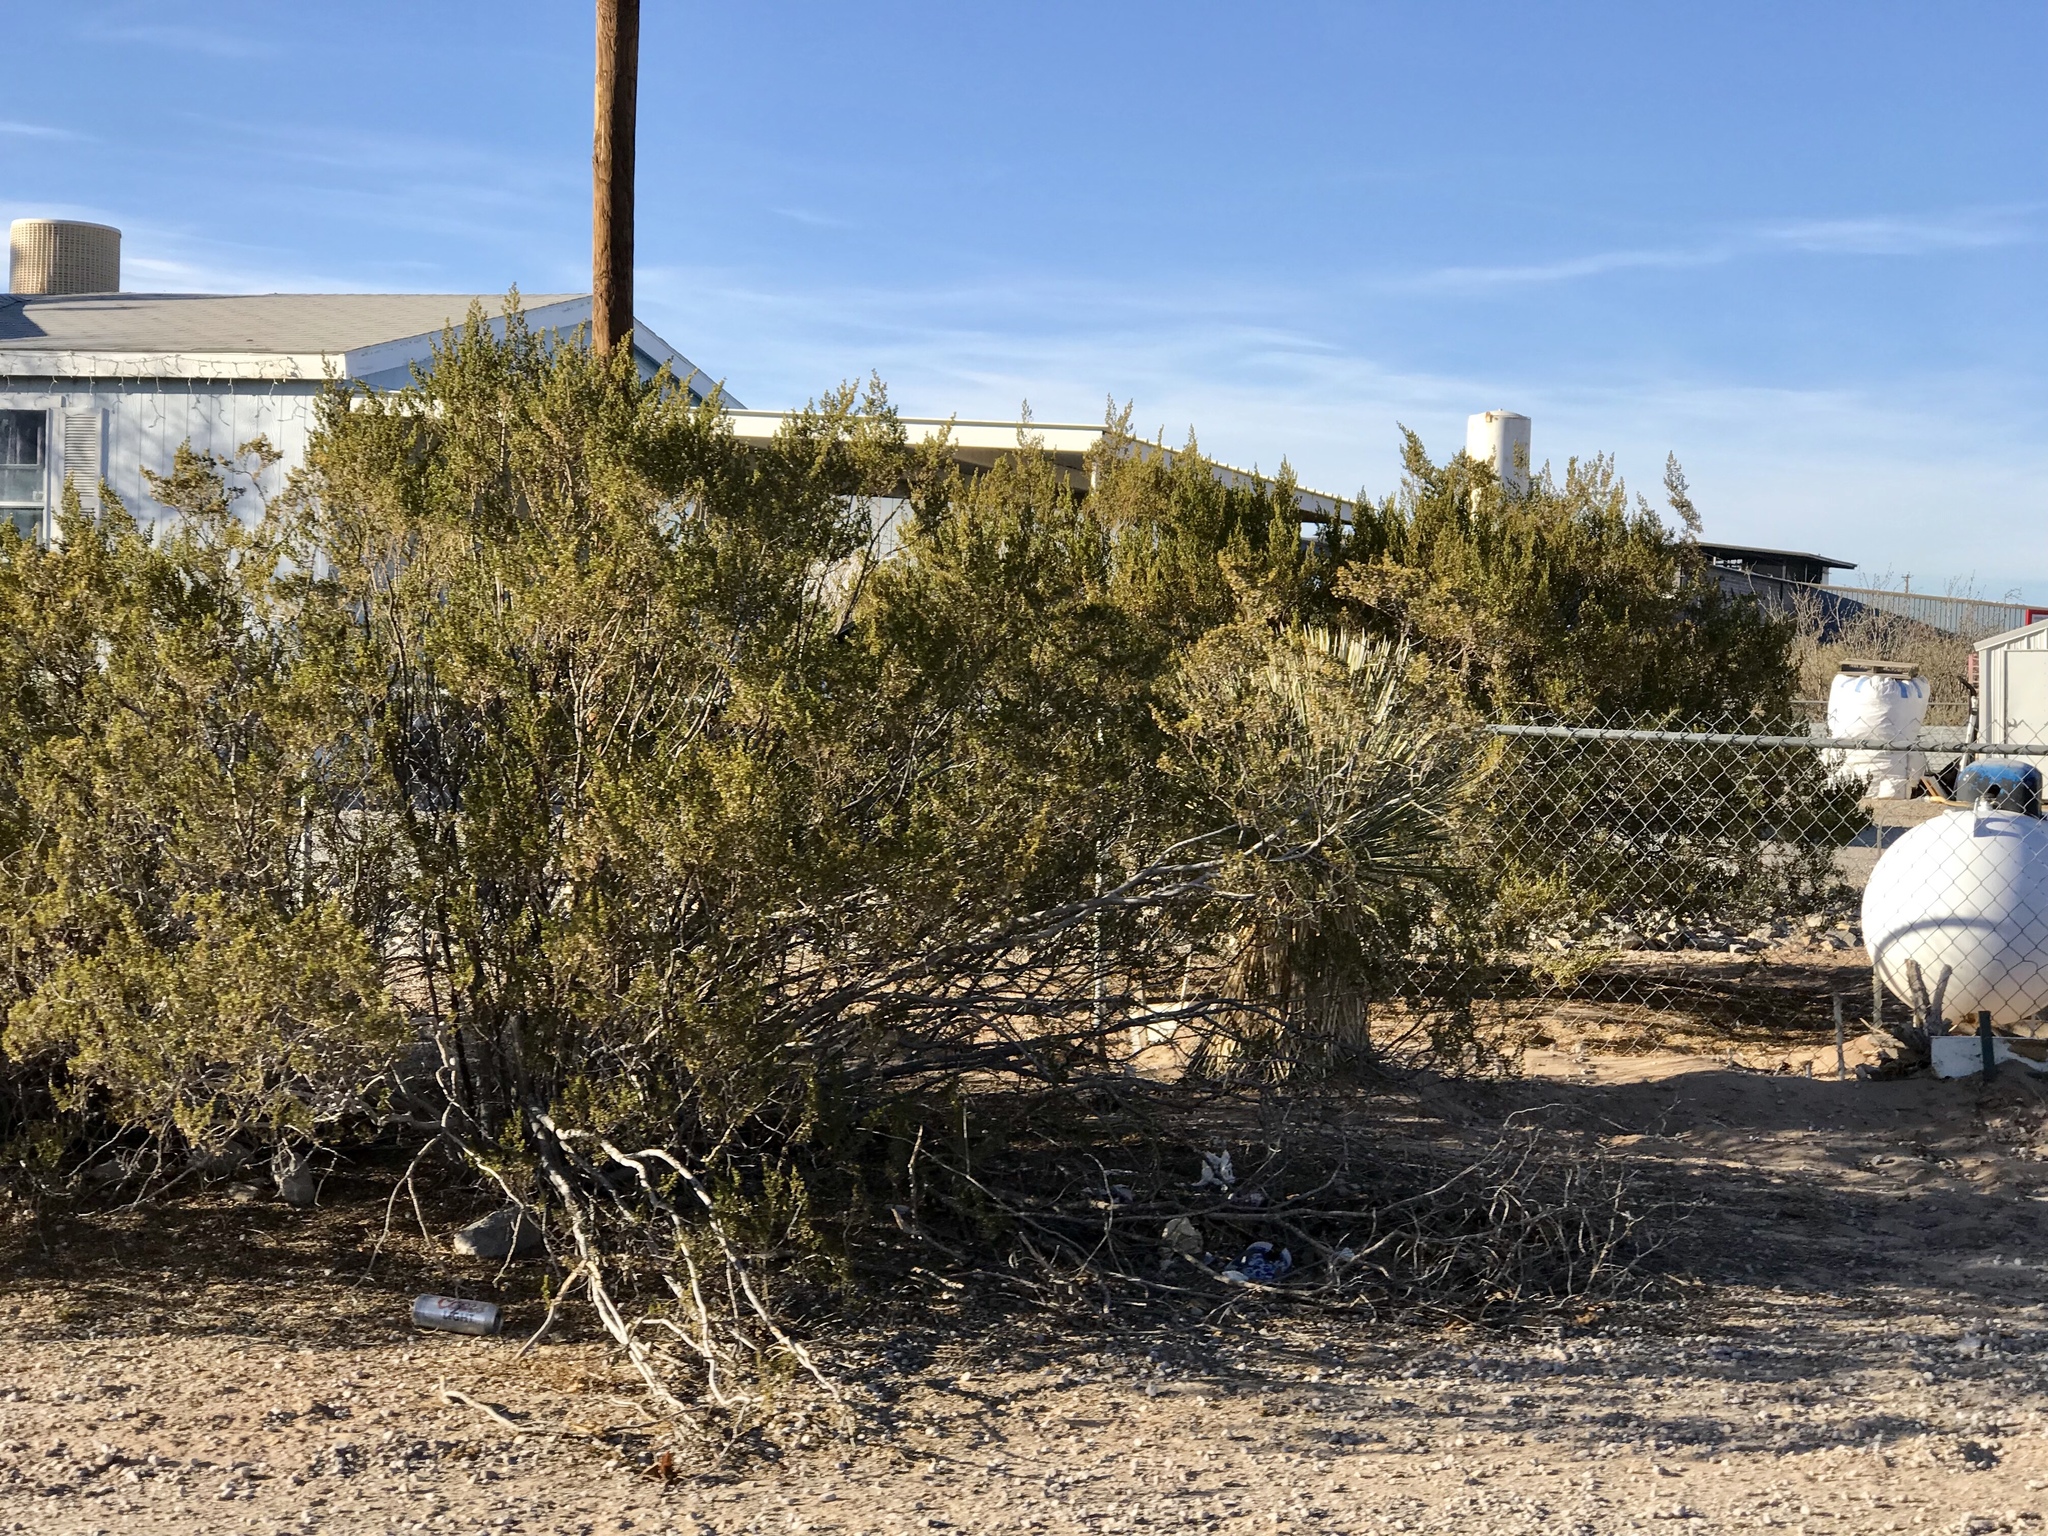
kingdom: Plantae
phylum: Tracheophyta
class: Magnoliopsida
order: Zygophyllales
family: Zygophyllaceae
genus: Larrea
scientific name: Larrea tridentata
